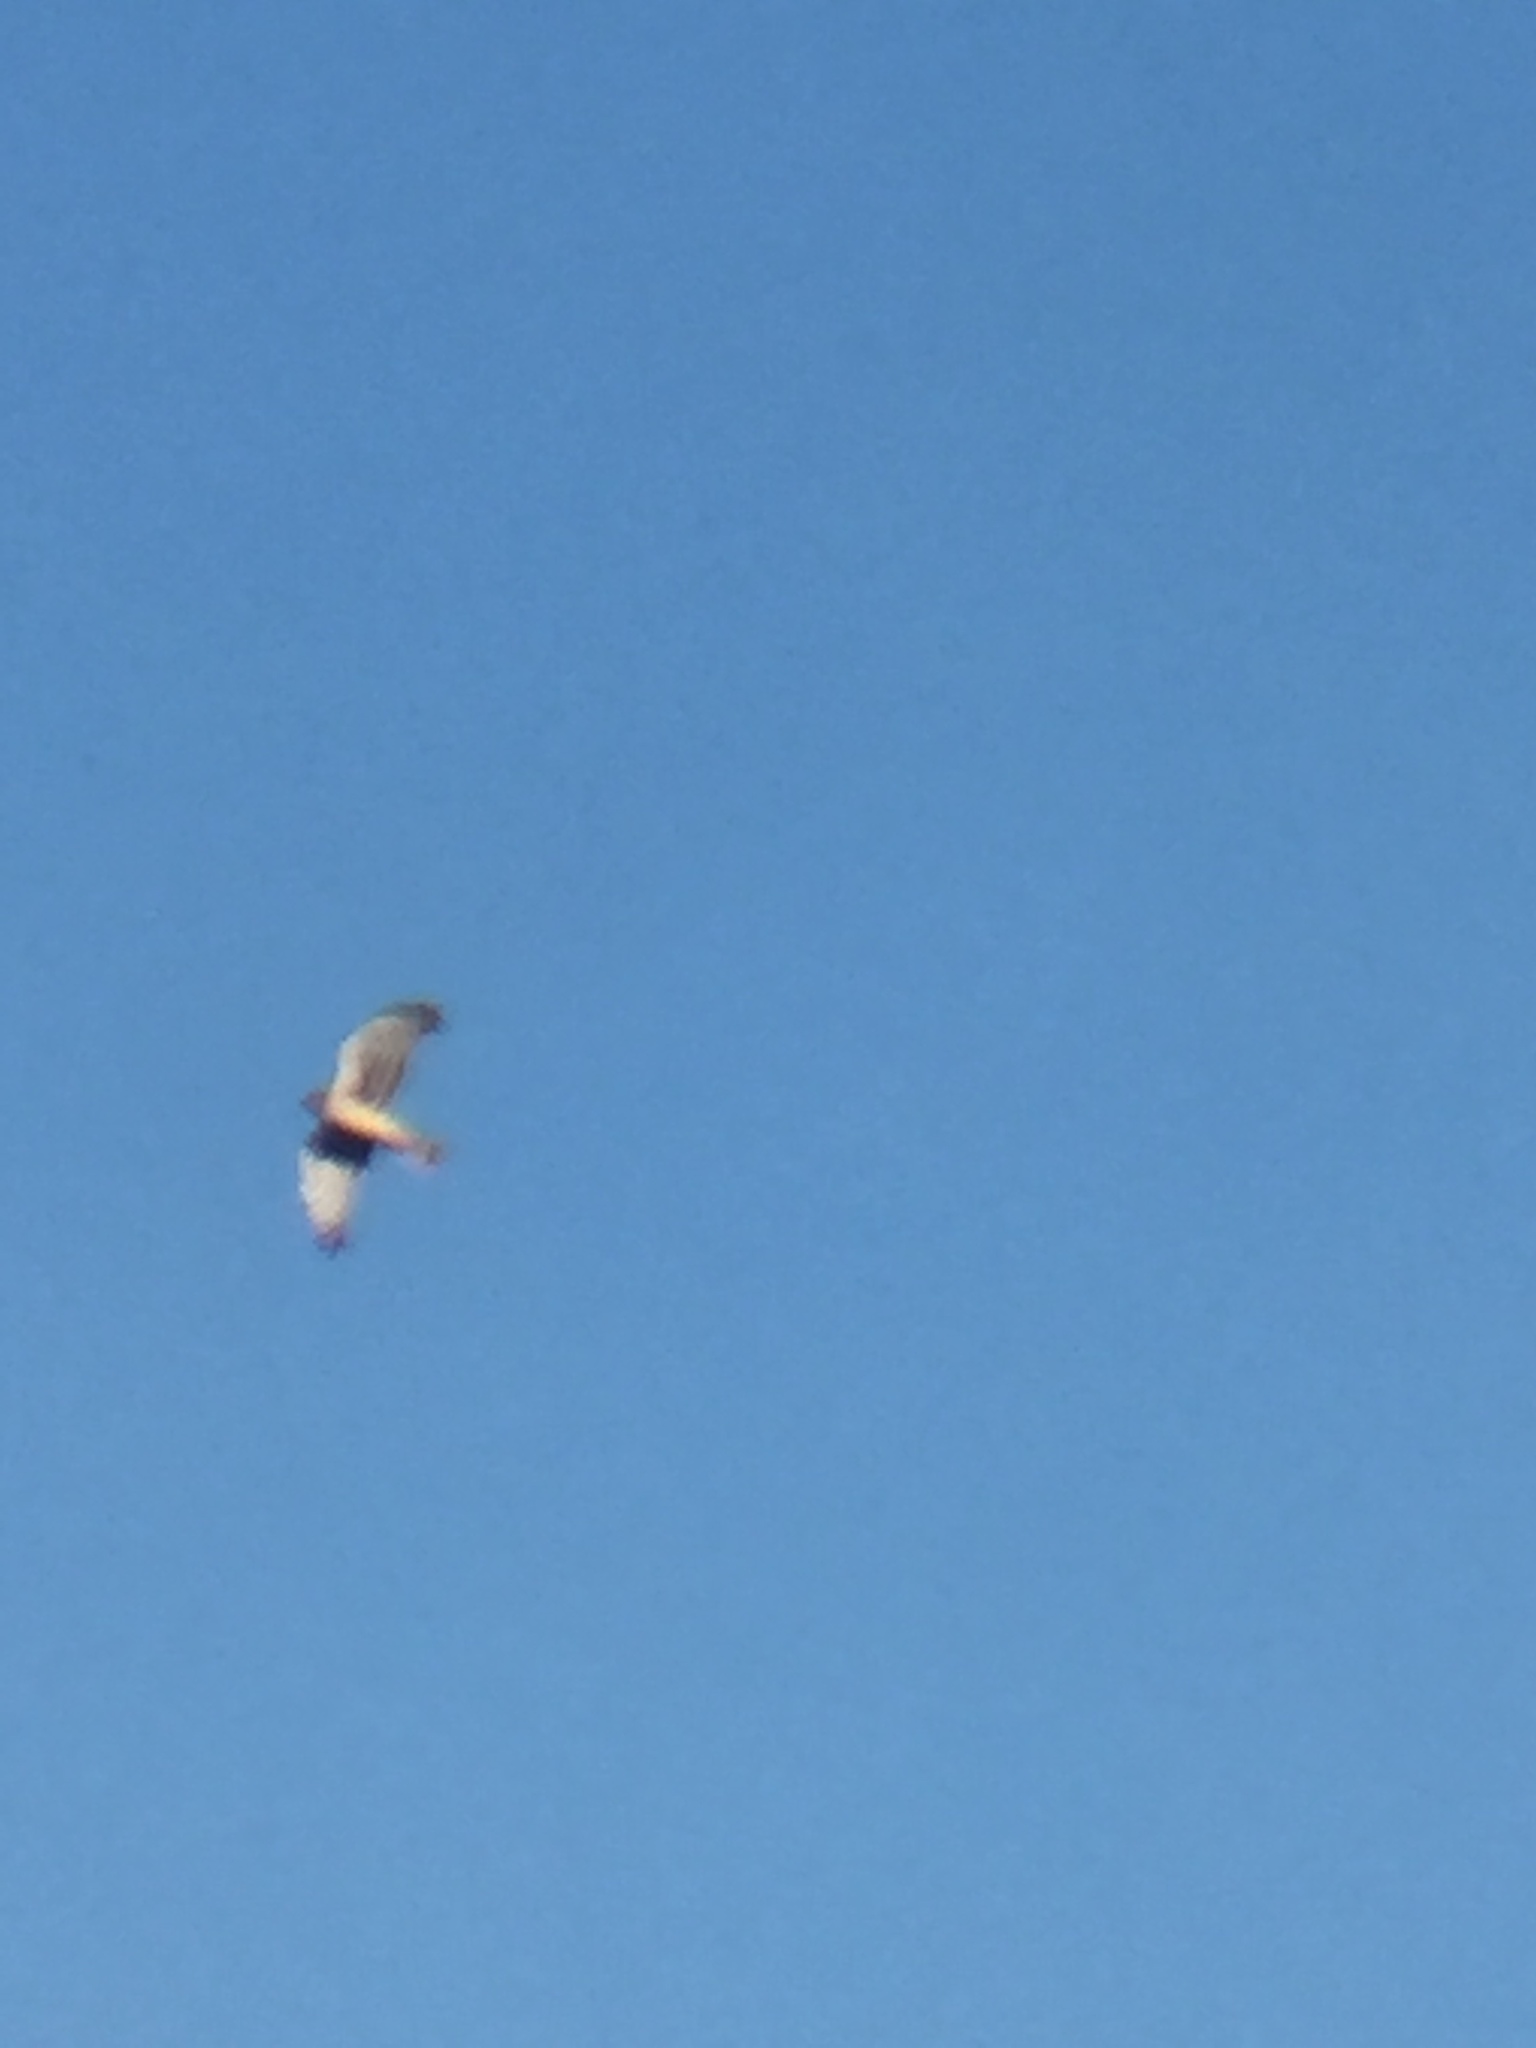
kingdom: Animalia
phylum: Chordata
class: Aves
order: Accipitriformes
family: Accipitridae
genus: Circus
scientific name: Circus cyaneus
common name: Hen harrier
